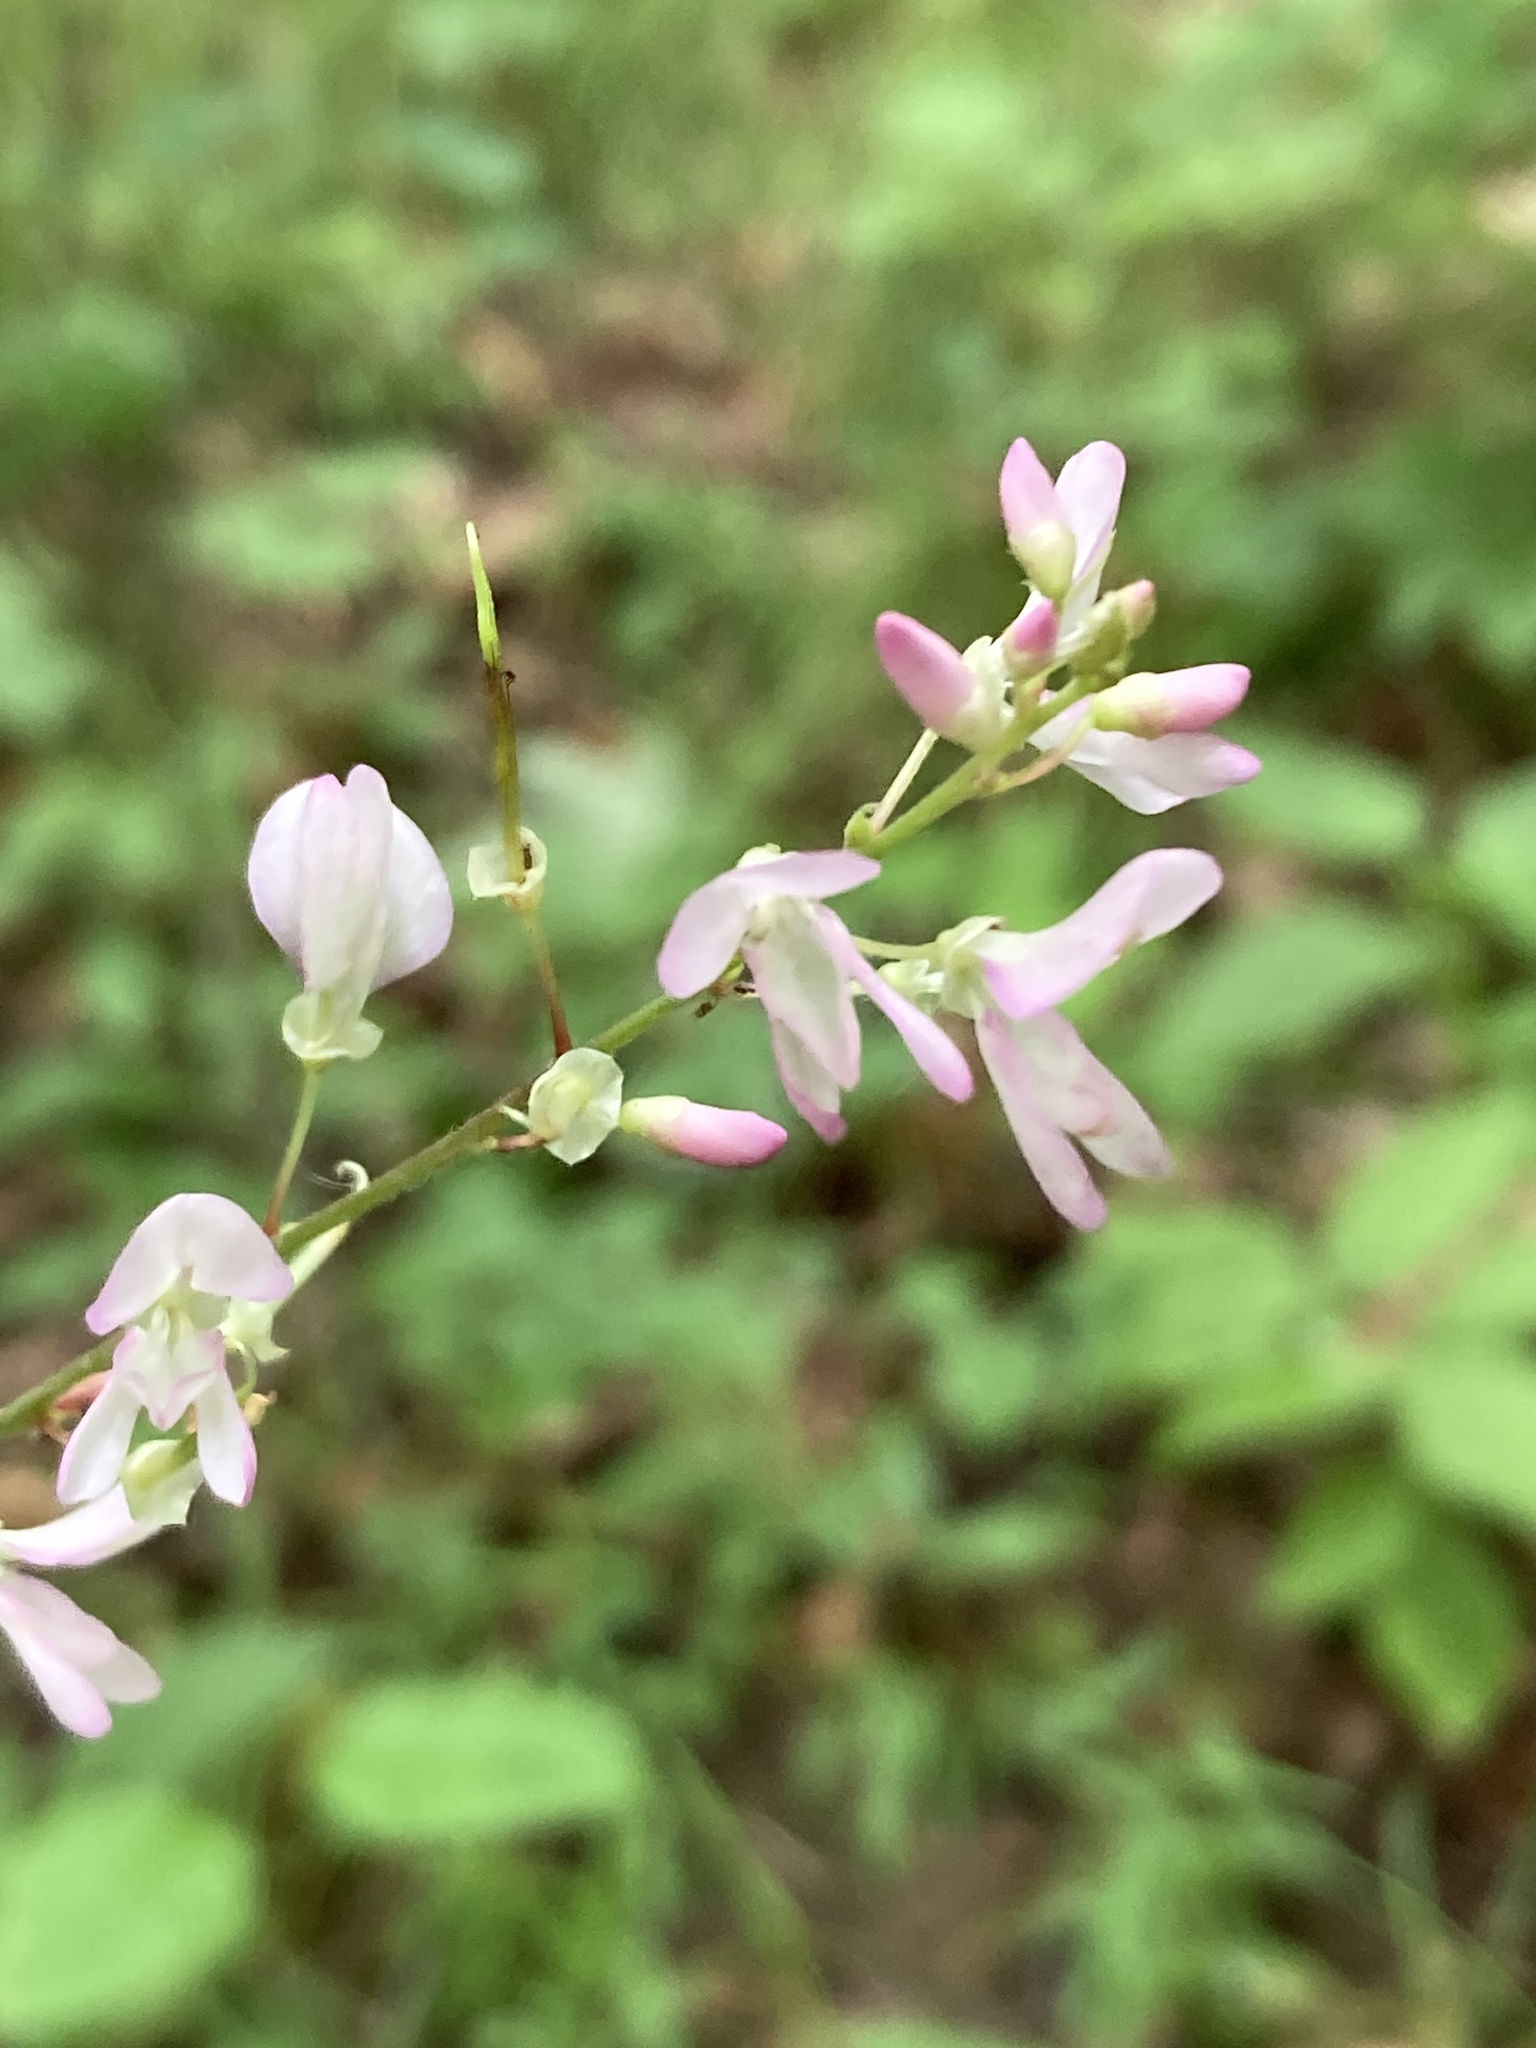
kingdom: Plantae
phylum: Tracheophyta
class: Magnoliopsida
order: Fabales
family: Fabaceae
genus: Hylodesmum
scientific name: Hylodesmum glutinosum
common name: Clustered-leaved tick-trefoil
